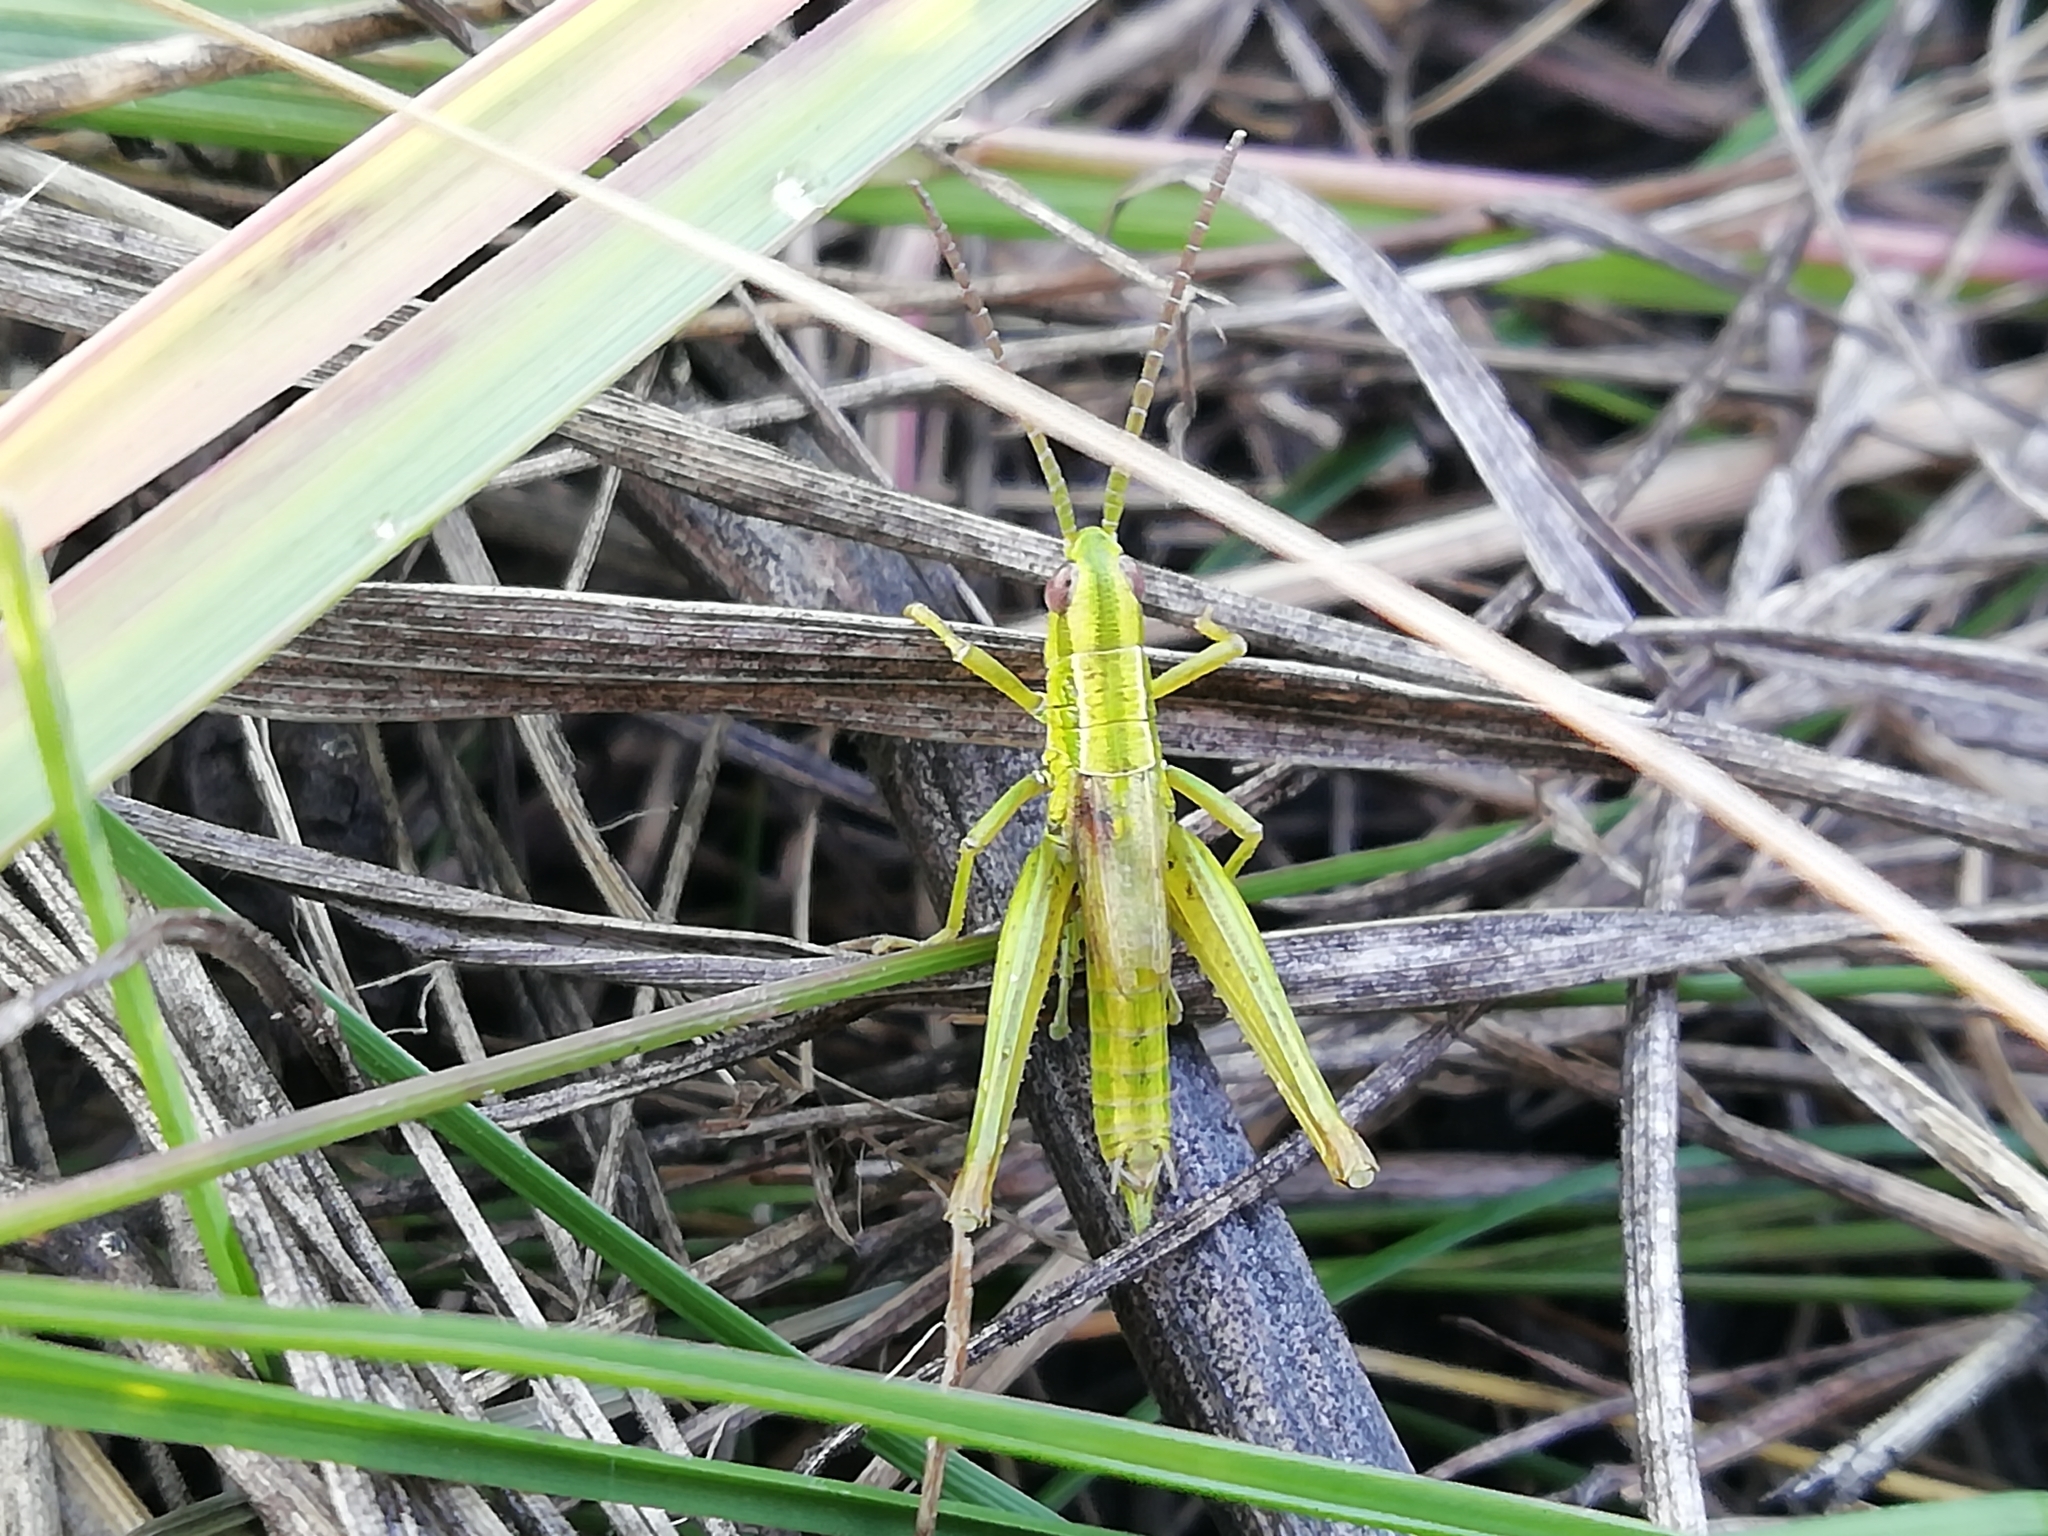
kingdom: Animalia
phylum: Arthropoda
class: Insecta
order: Orthoptera
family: Acrididae
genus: Euthystira
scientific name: Euthystira brachyptera
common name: Small gold grasshopper
